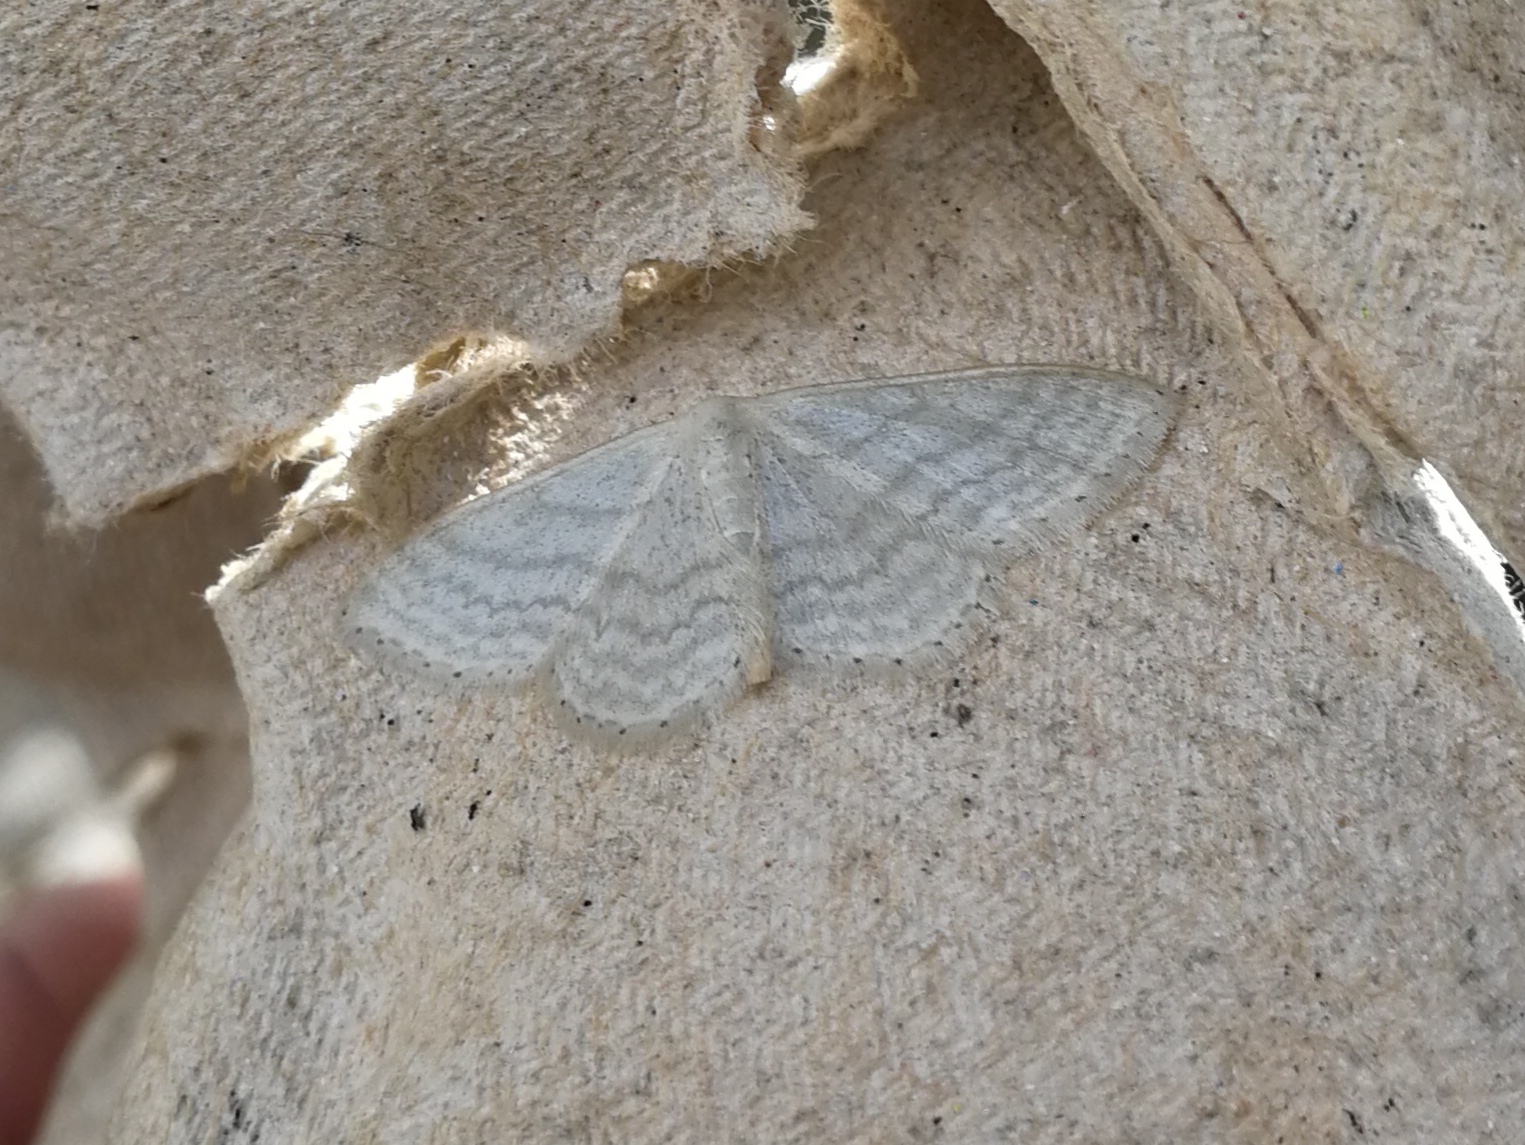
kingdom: Animalia
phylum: Arthropoda
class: Insecta
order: Lepidoptera
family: Geometridae
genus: Idaea
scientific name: Idaea subsericeata
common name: Satin wave
